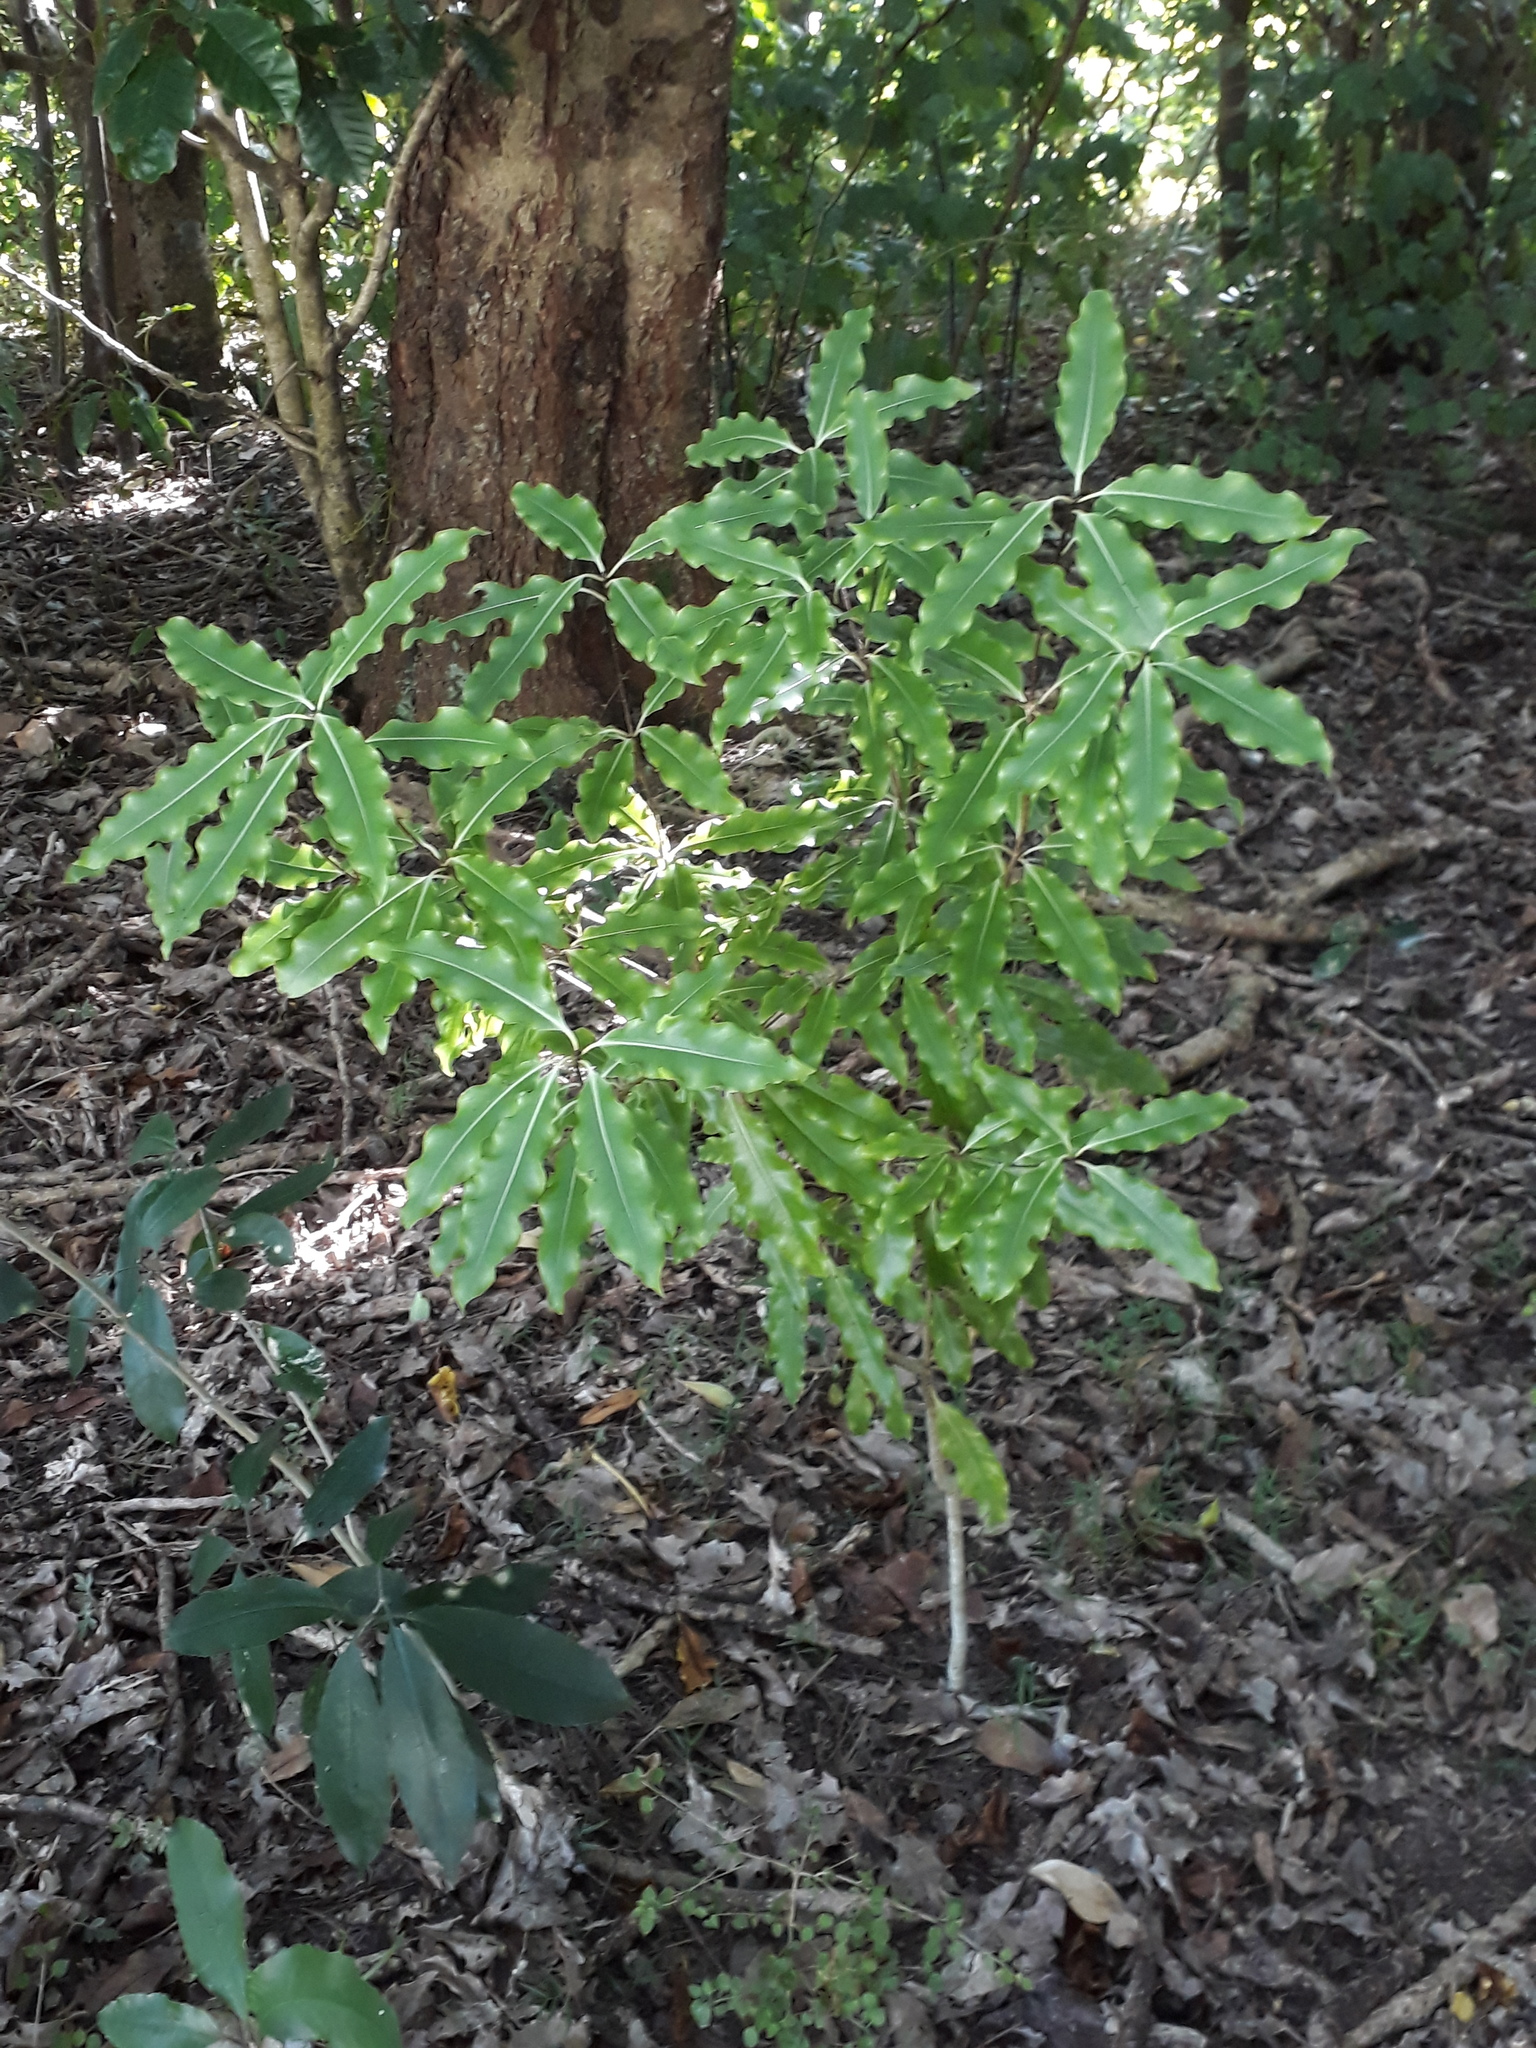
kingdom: Plantae
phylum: Tracheophyta
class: Magnoliopsida
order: Apiales
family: Pittosporaceae
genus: Pittosporum
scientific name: Pittosporum eugenioides
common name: Lemonwood
